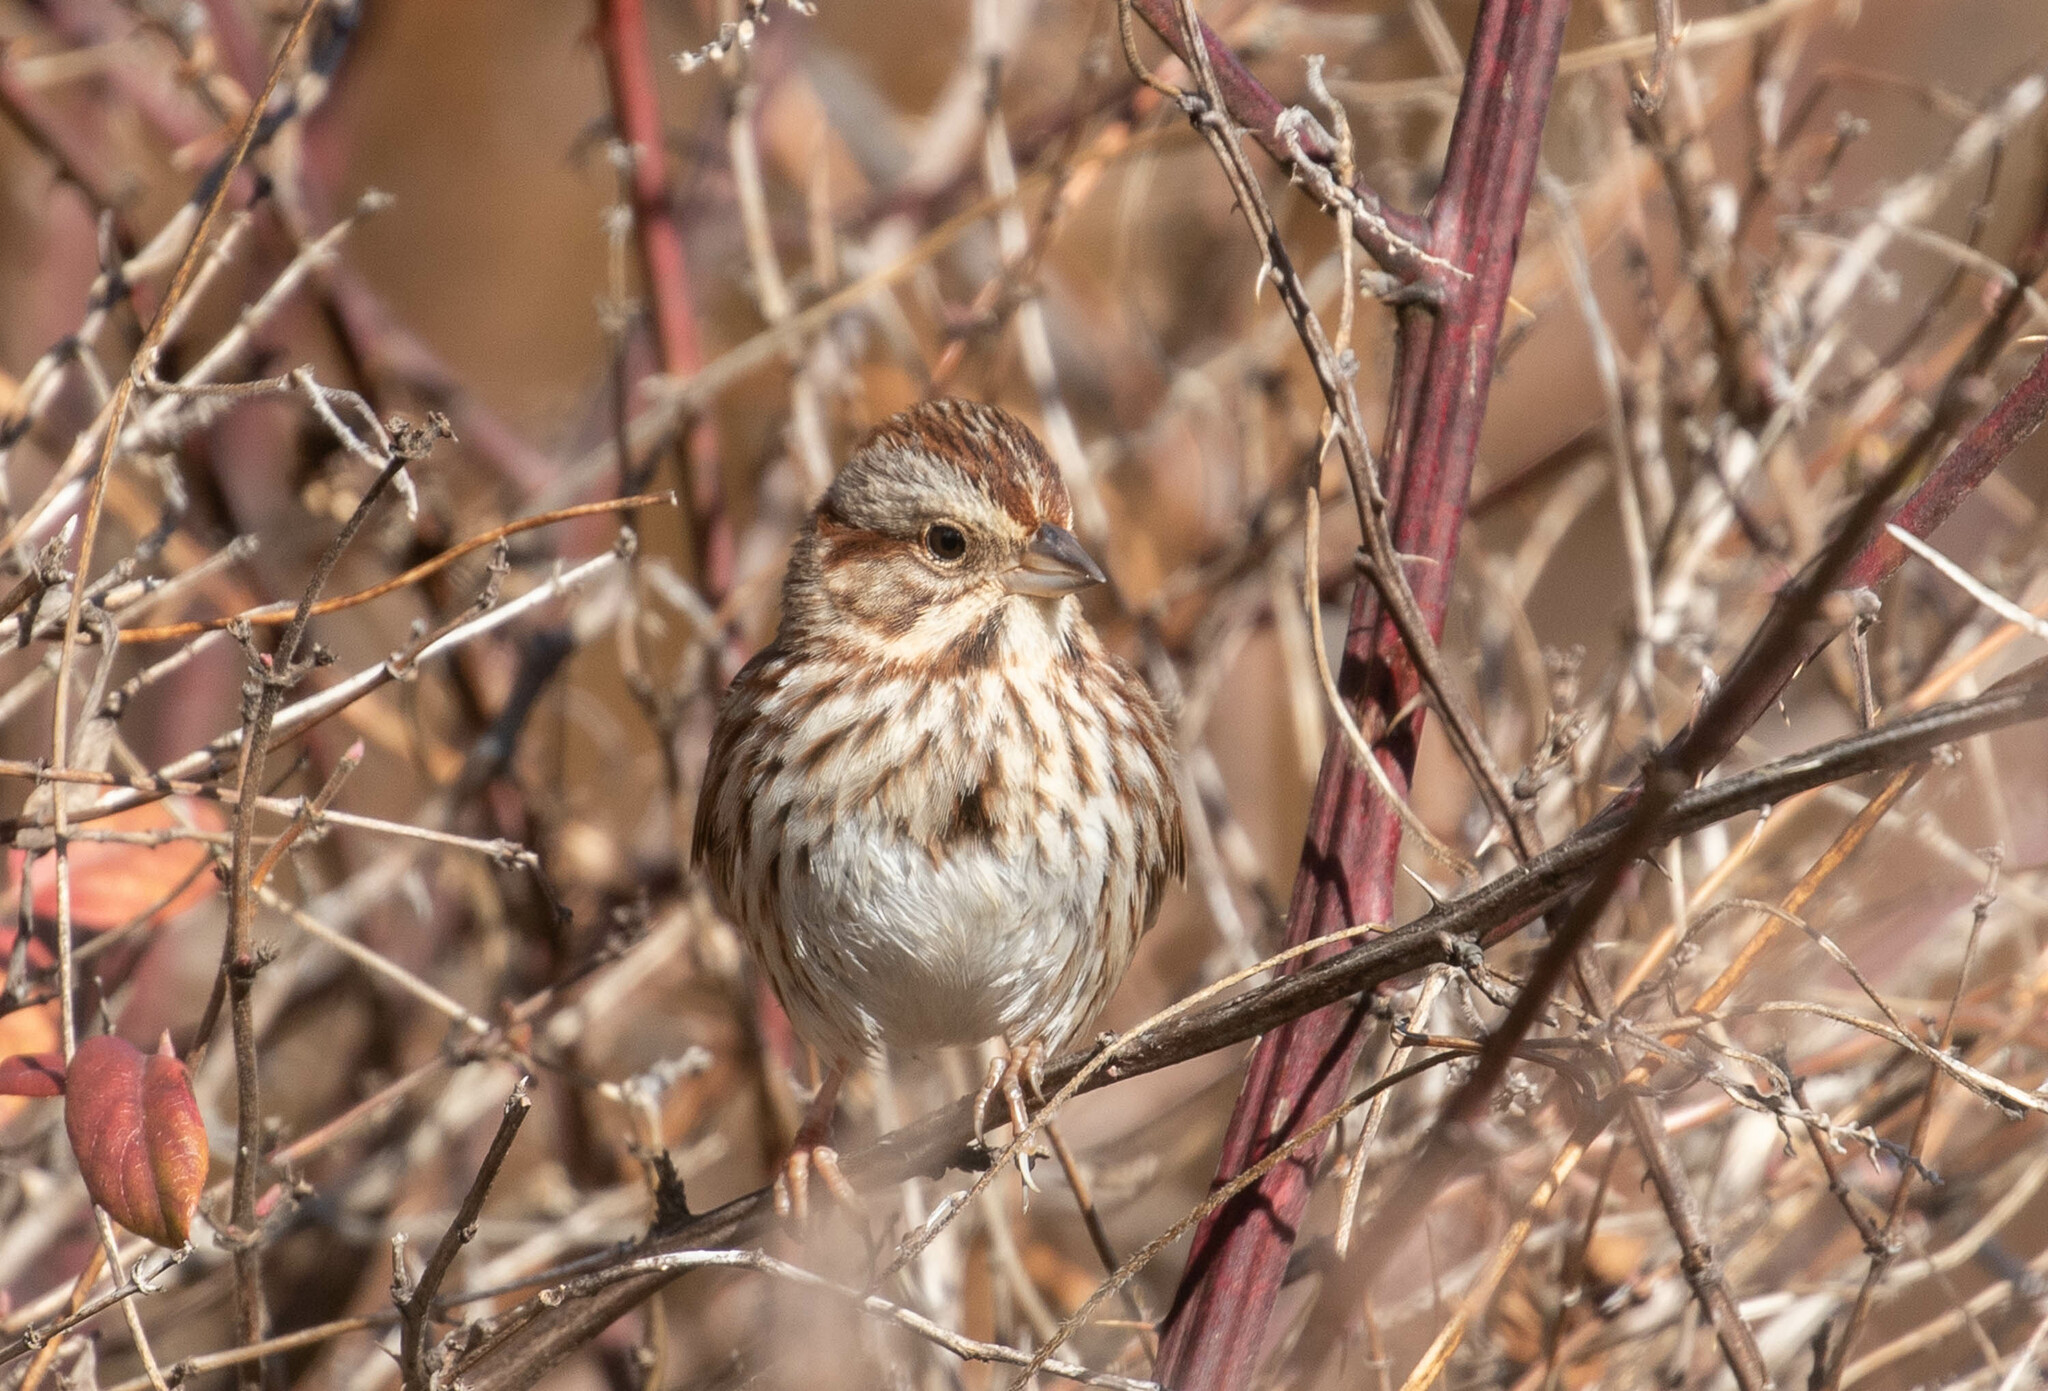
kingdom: Animalia
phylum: Chordata
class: Aves
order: Passeriformes
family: Passerellidae
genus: Melospiza
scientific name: Melospiza melodia
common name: Song sparrow
